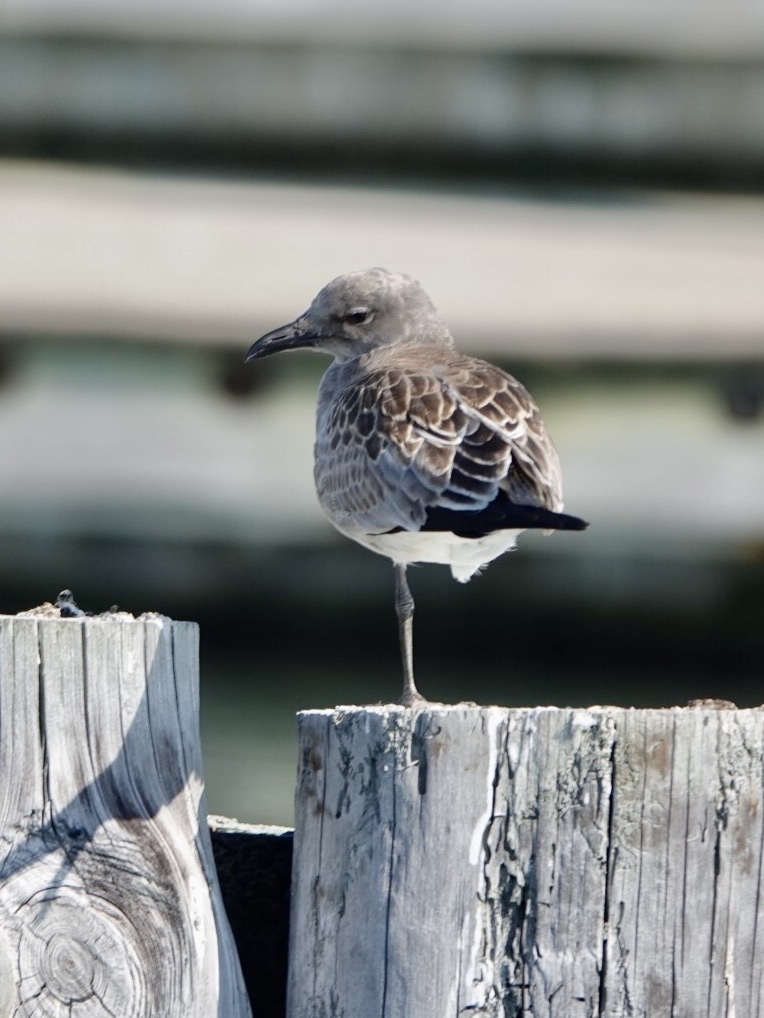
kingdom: Animalia
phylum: Chordata
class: Aves
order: Charadriiformes
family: Laridae
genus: Leucophaeus
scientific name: Leucophaeus atricilla
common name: Laughing gull
